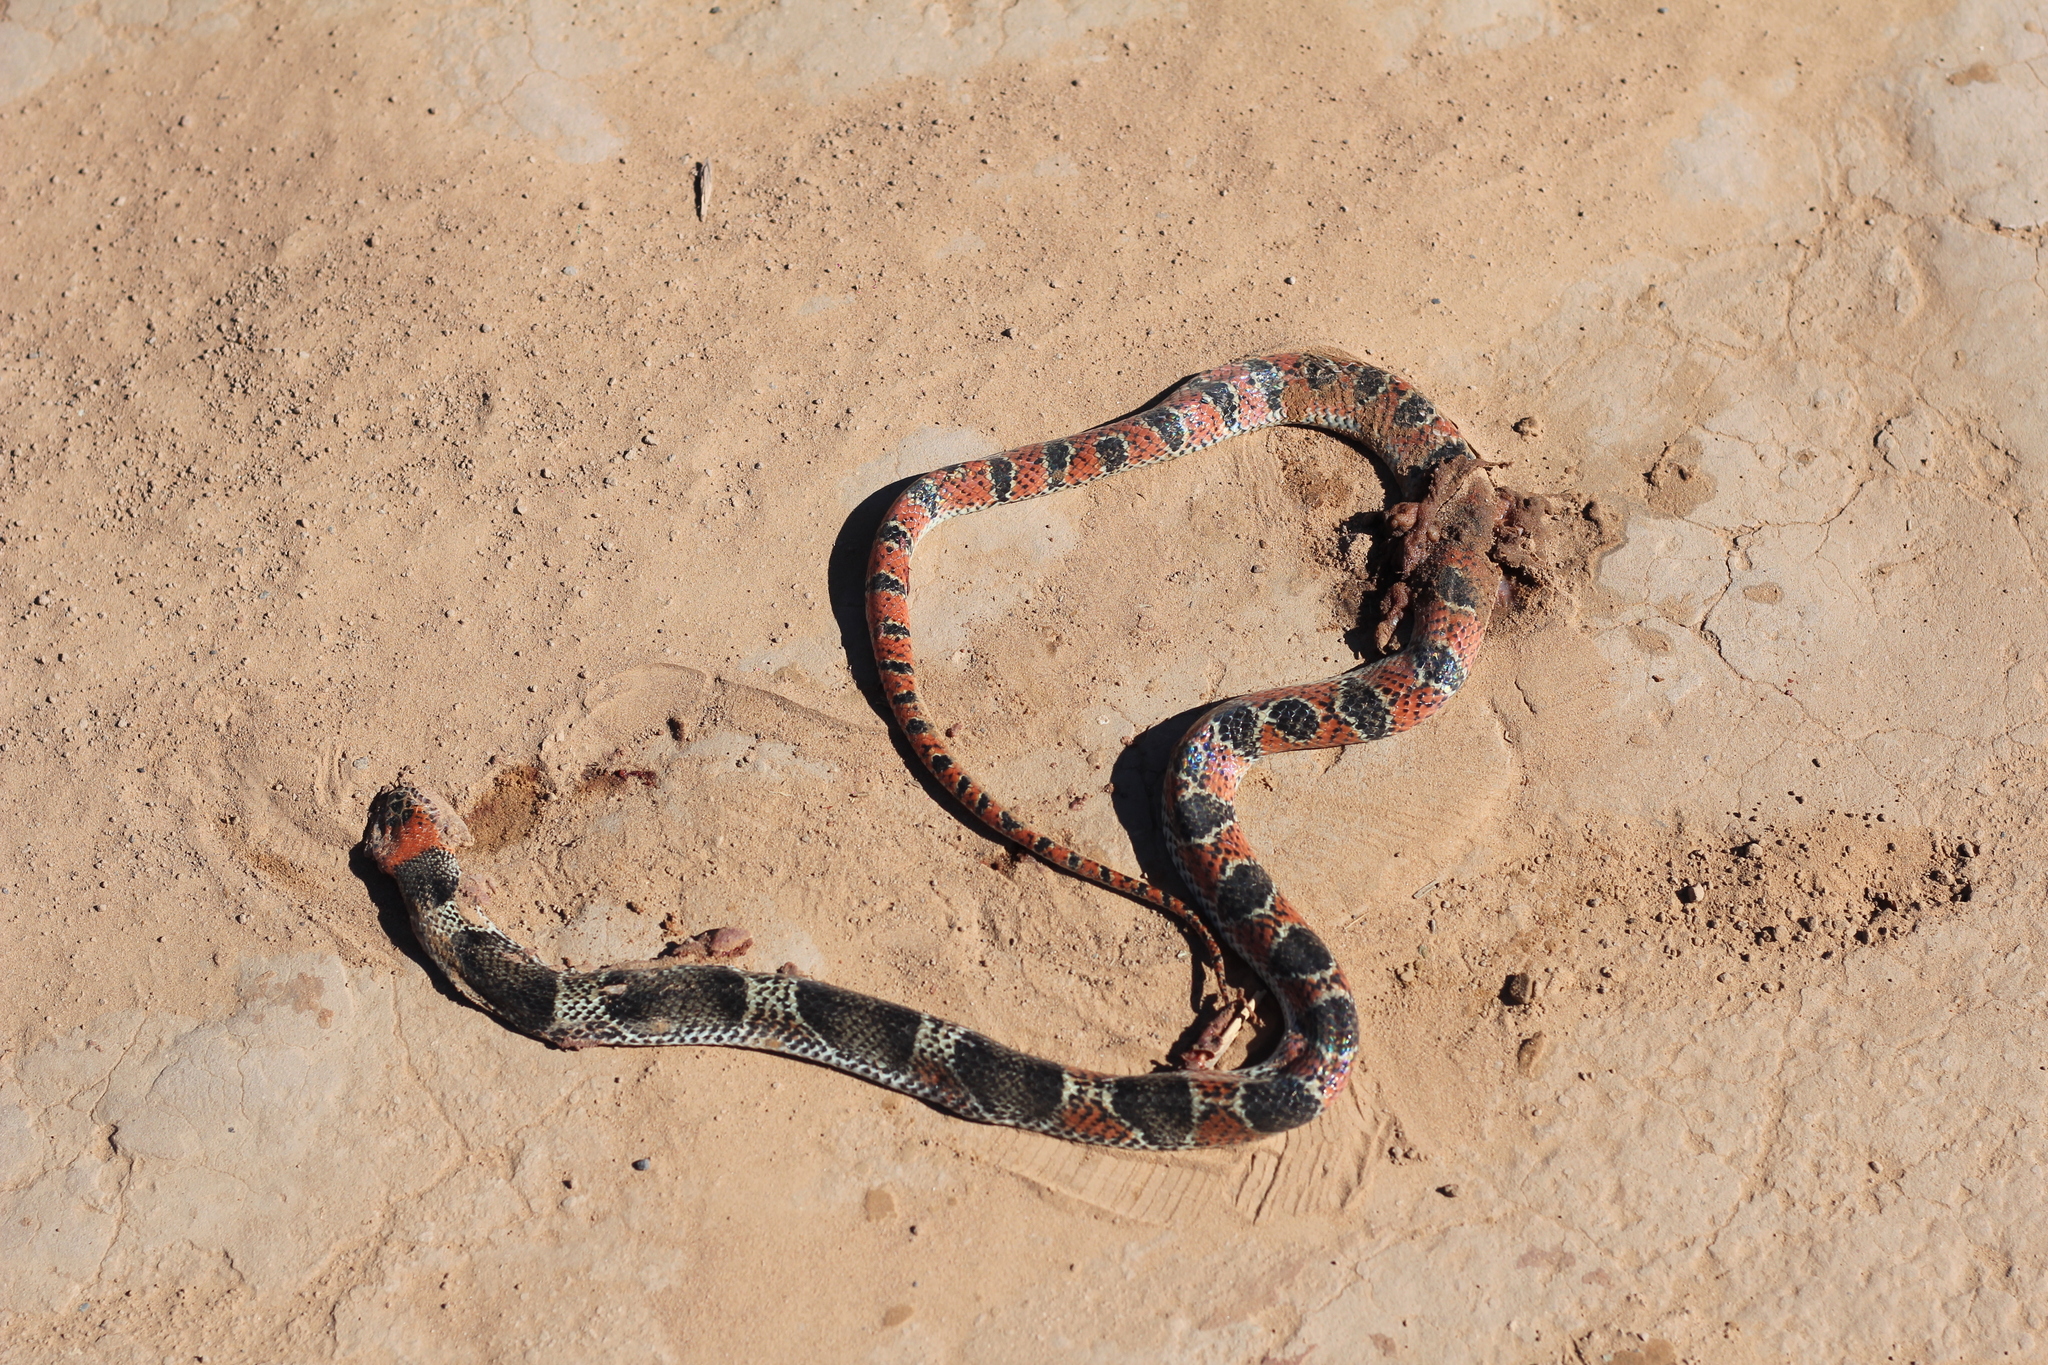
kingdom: Animalia
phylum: Chordata
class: Squamata
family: Colubridae
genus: Oxyrhopus
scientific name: Oxyrhopus rhombifer
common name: Amazon false coral snake
